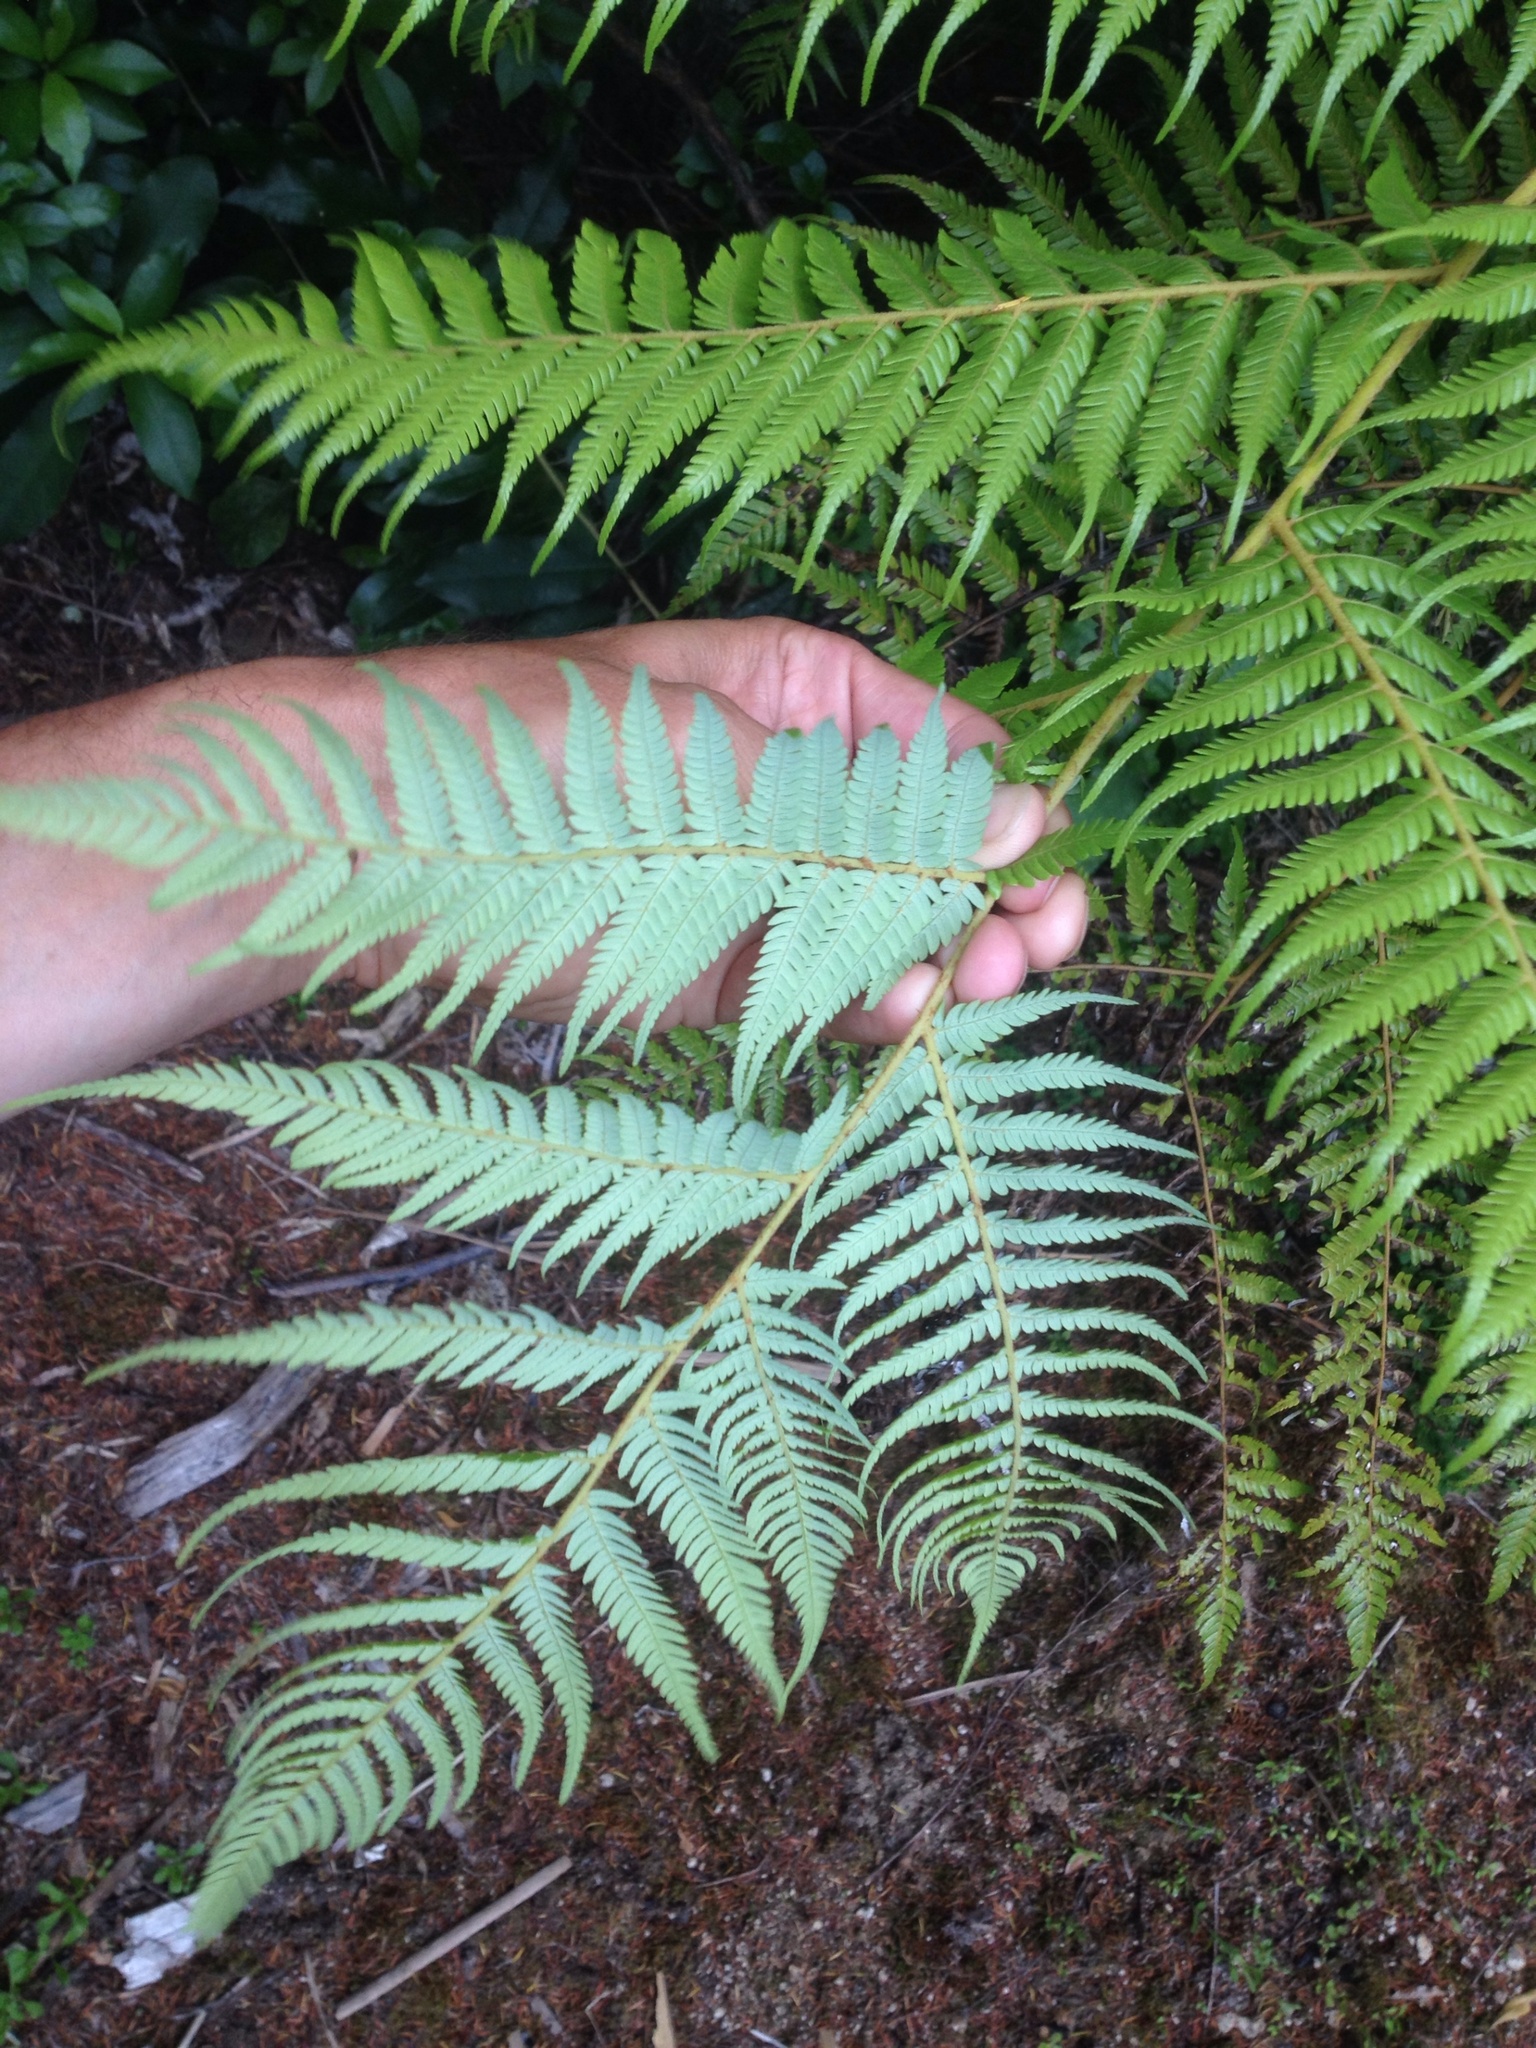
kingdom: Plantae
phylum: Tracheophyta
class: Polypodiopsida
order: Cyatheales
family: Cyatheaceae
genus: Alsophila
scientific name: Alsophila dealbata
